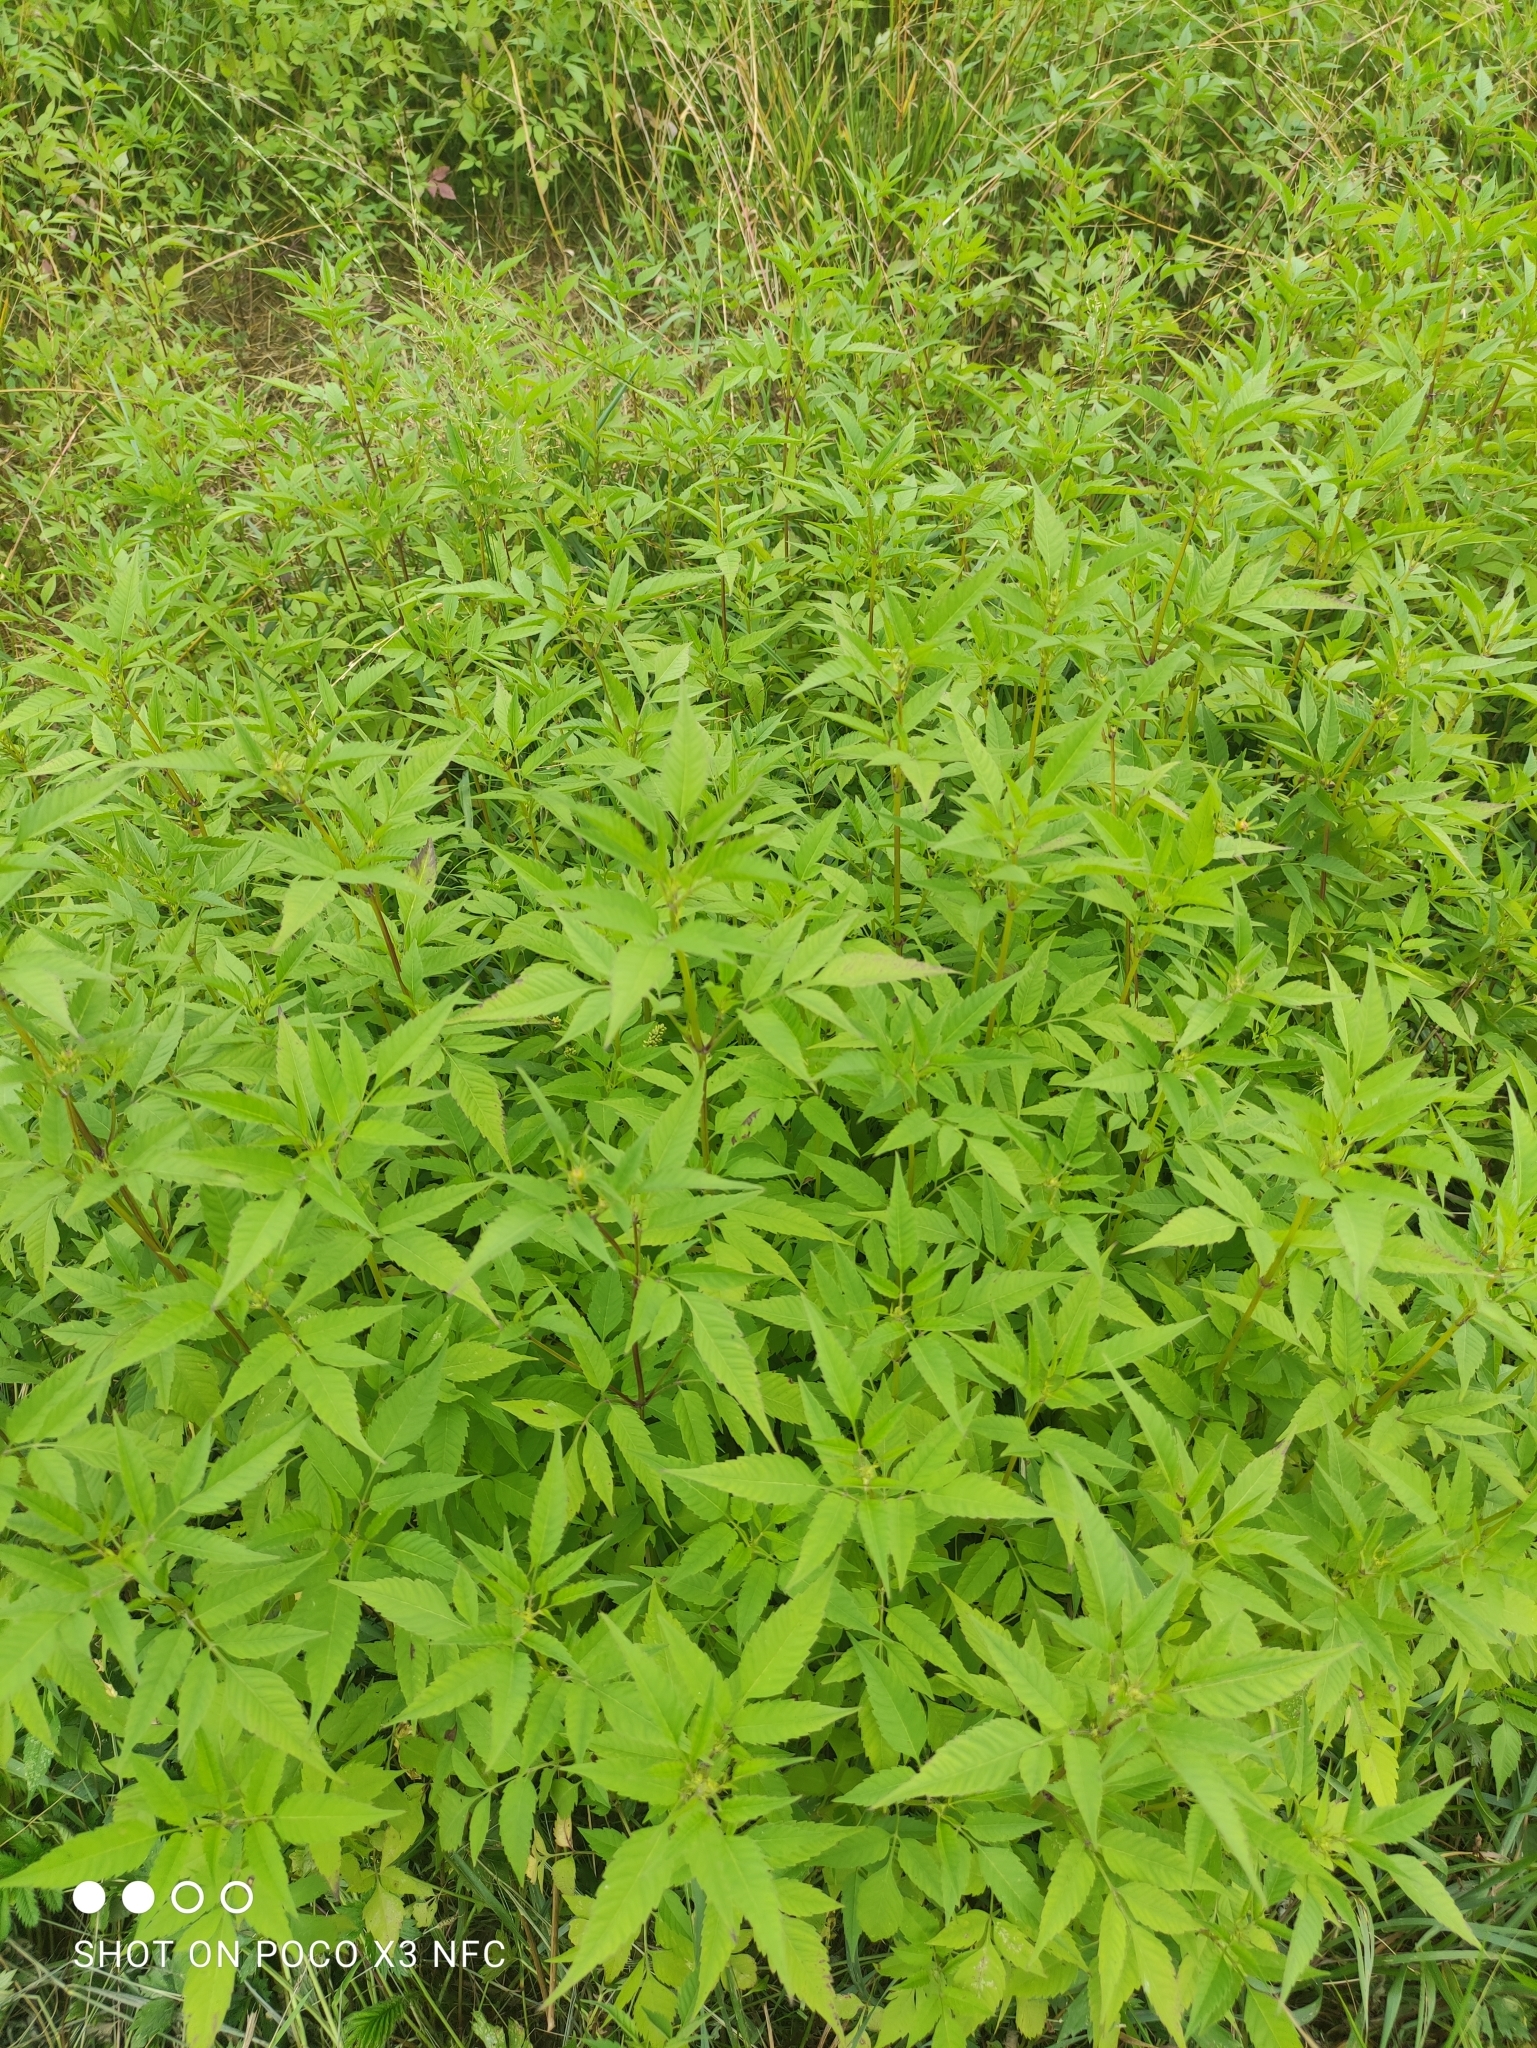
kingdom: Plantae
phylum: Tracheophyta
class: Magnoliopsida
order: Asterales
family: Asteraceae
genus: Bidens
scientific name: Bidens frondosa
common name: Beggarticks
